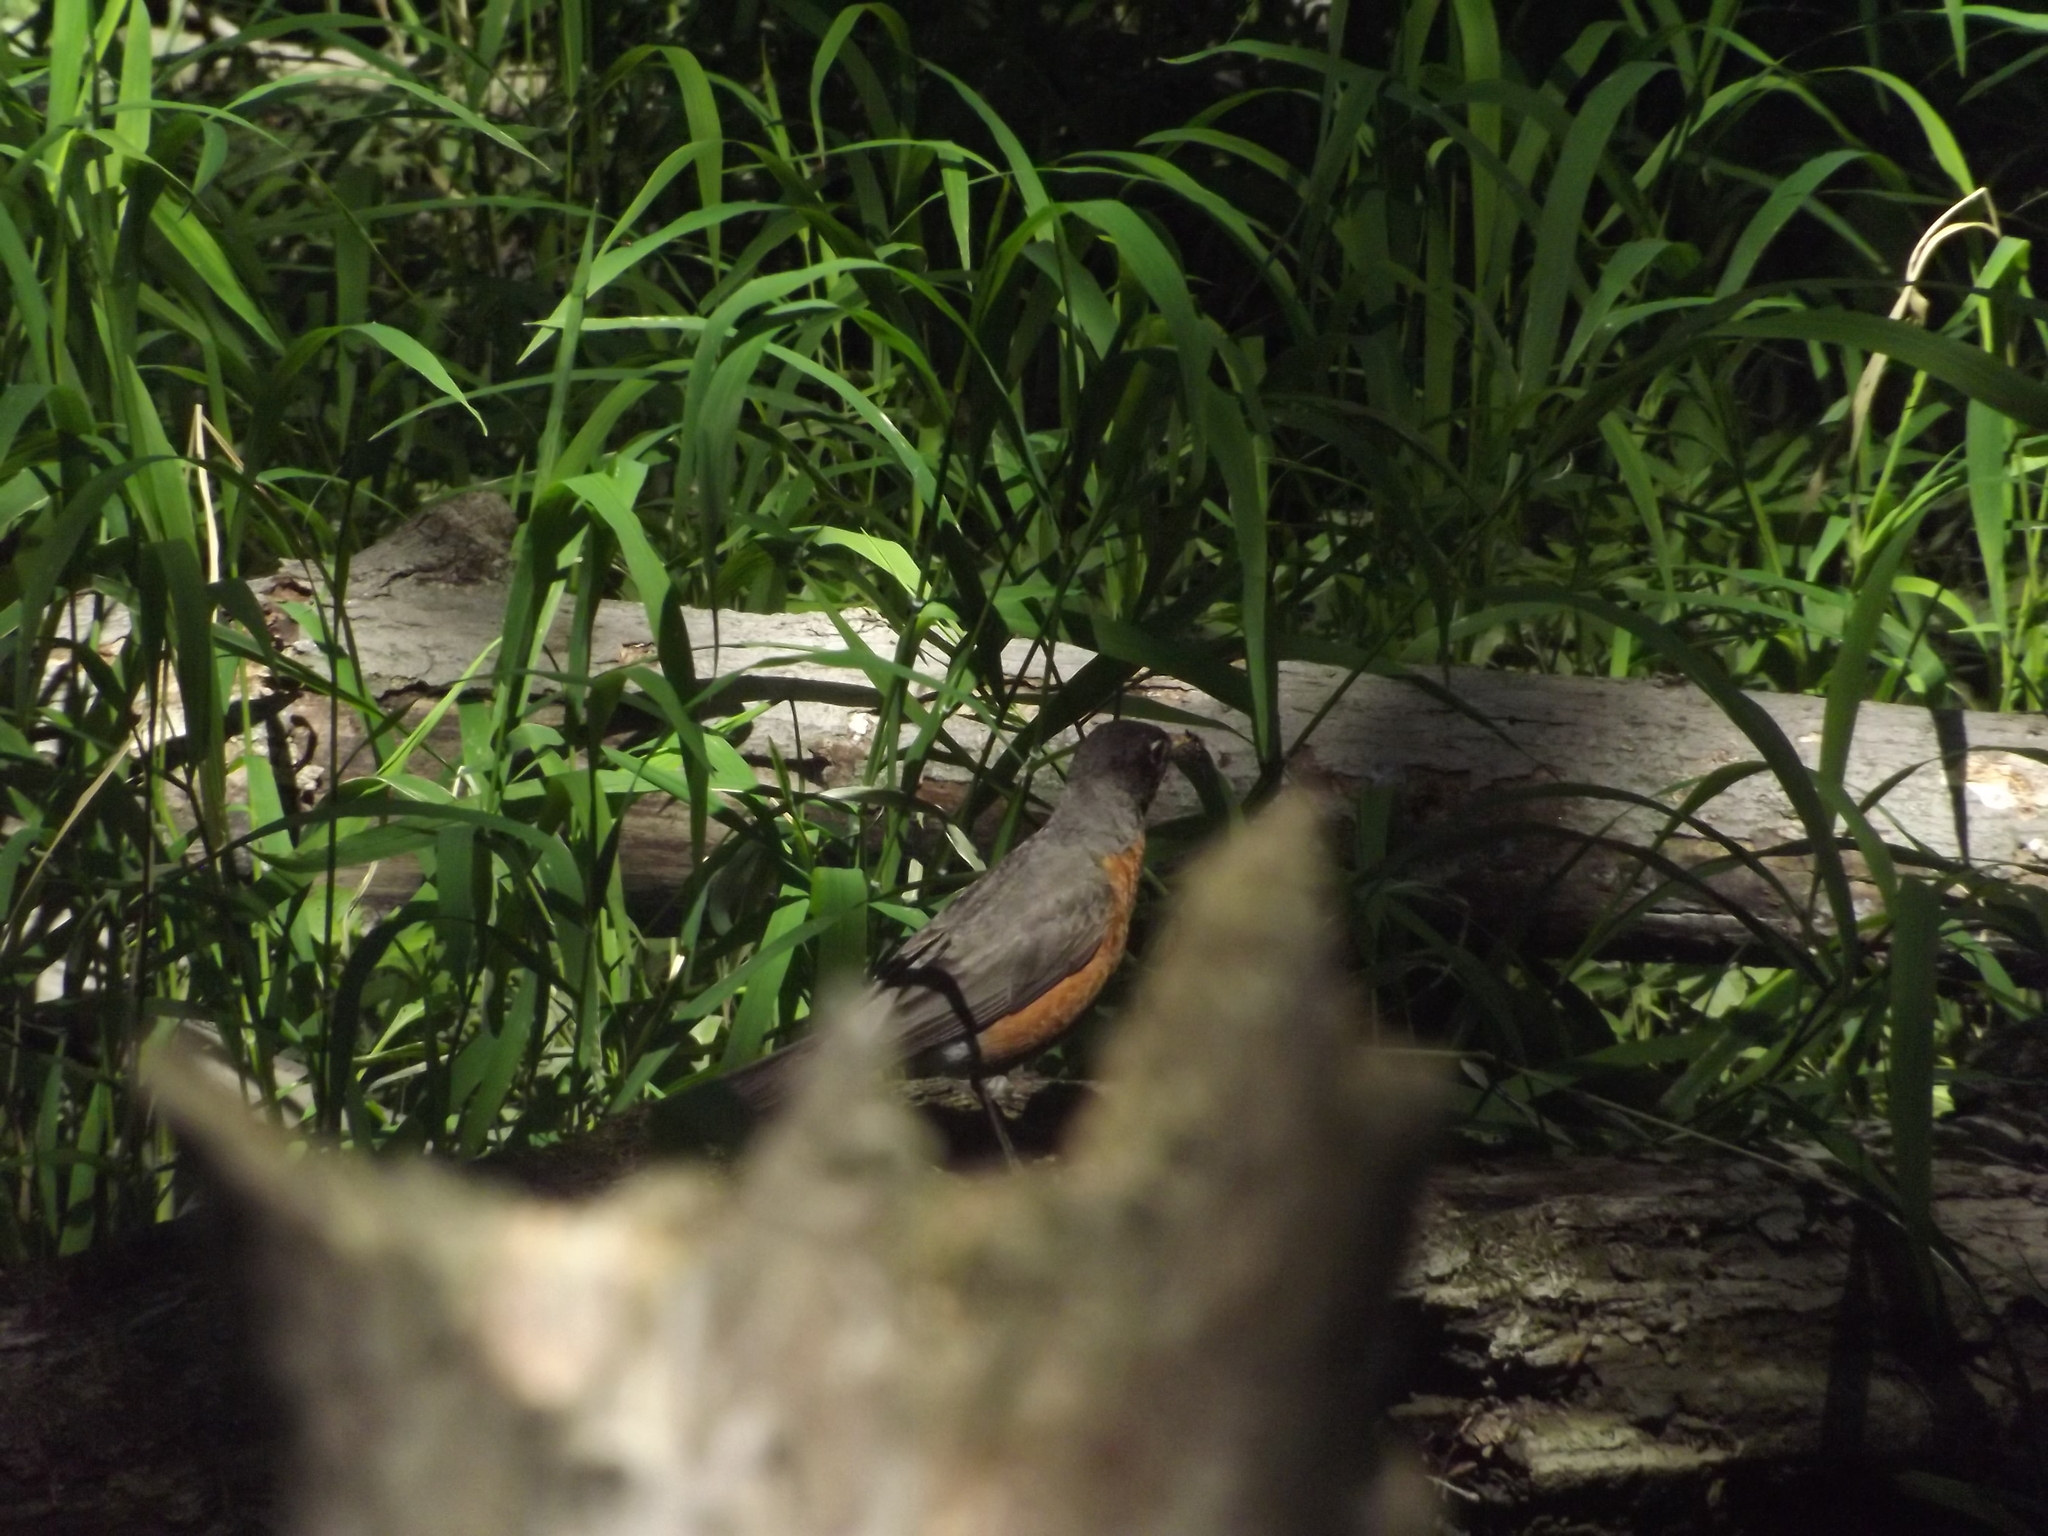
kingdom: Animalia
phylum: Chordata
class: Aves
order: Passeriformes
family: Turdidae
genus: Turdus
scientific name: Turdus migratorius
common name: American robin
